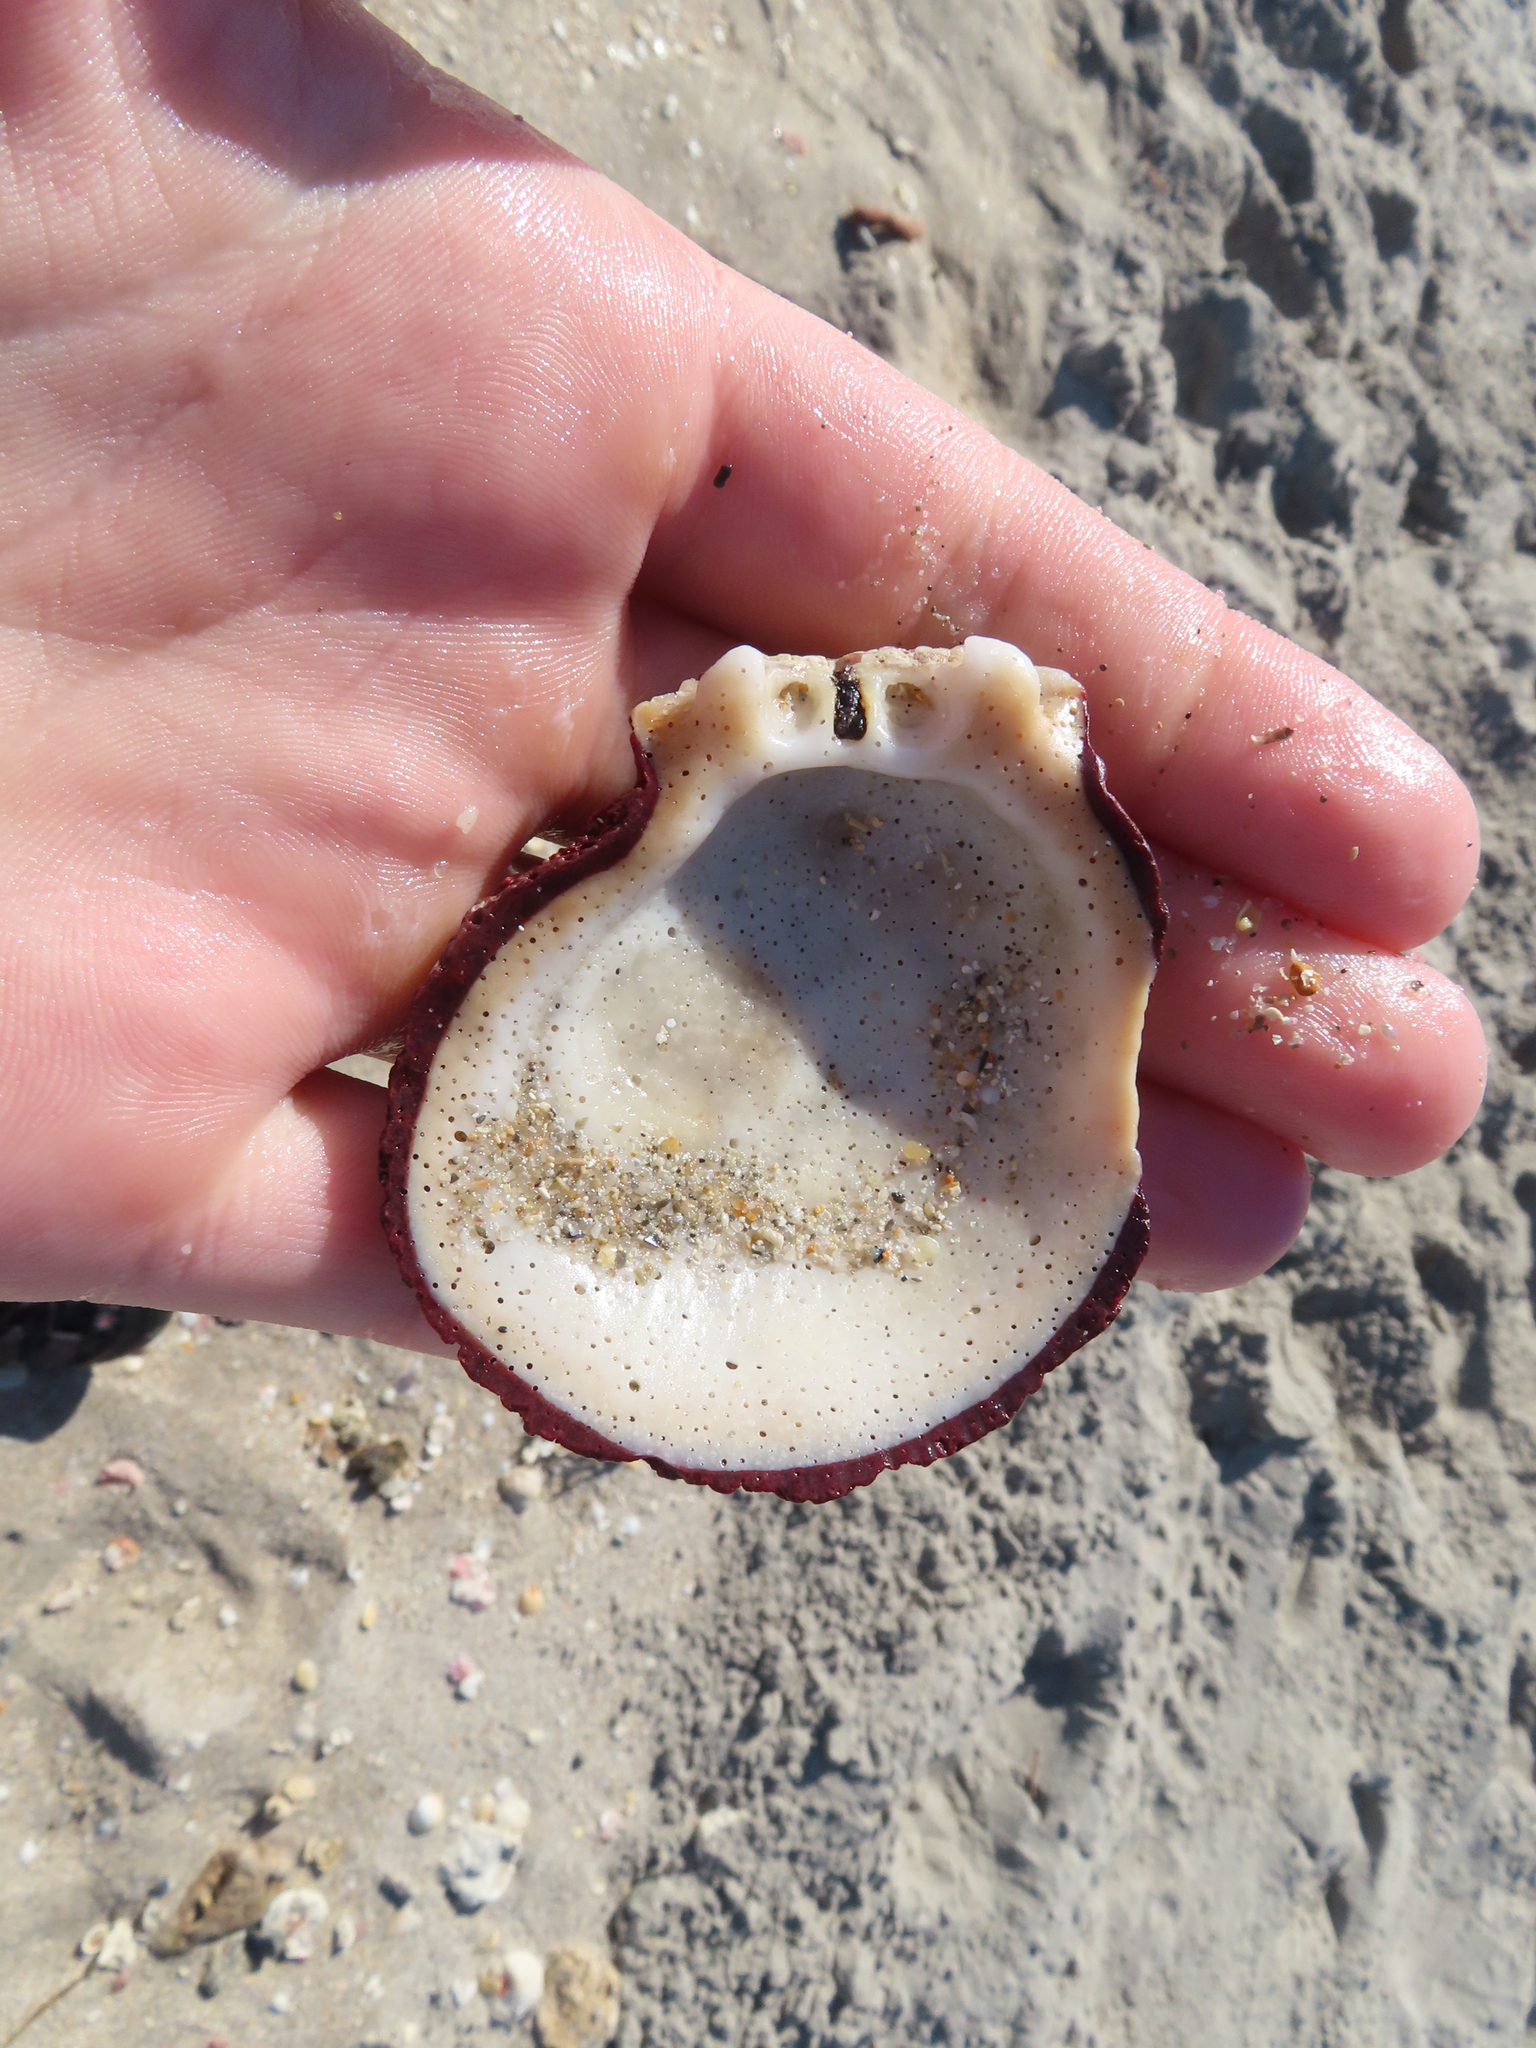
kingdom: Animalia
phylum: Mollusca
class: Bivalvia
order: Pectinida
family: Spondylidae
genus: Spondylus
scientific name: Spondylus tenuis
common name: Digitate thorny oyster
